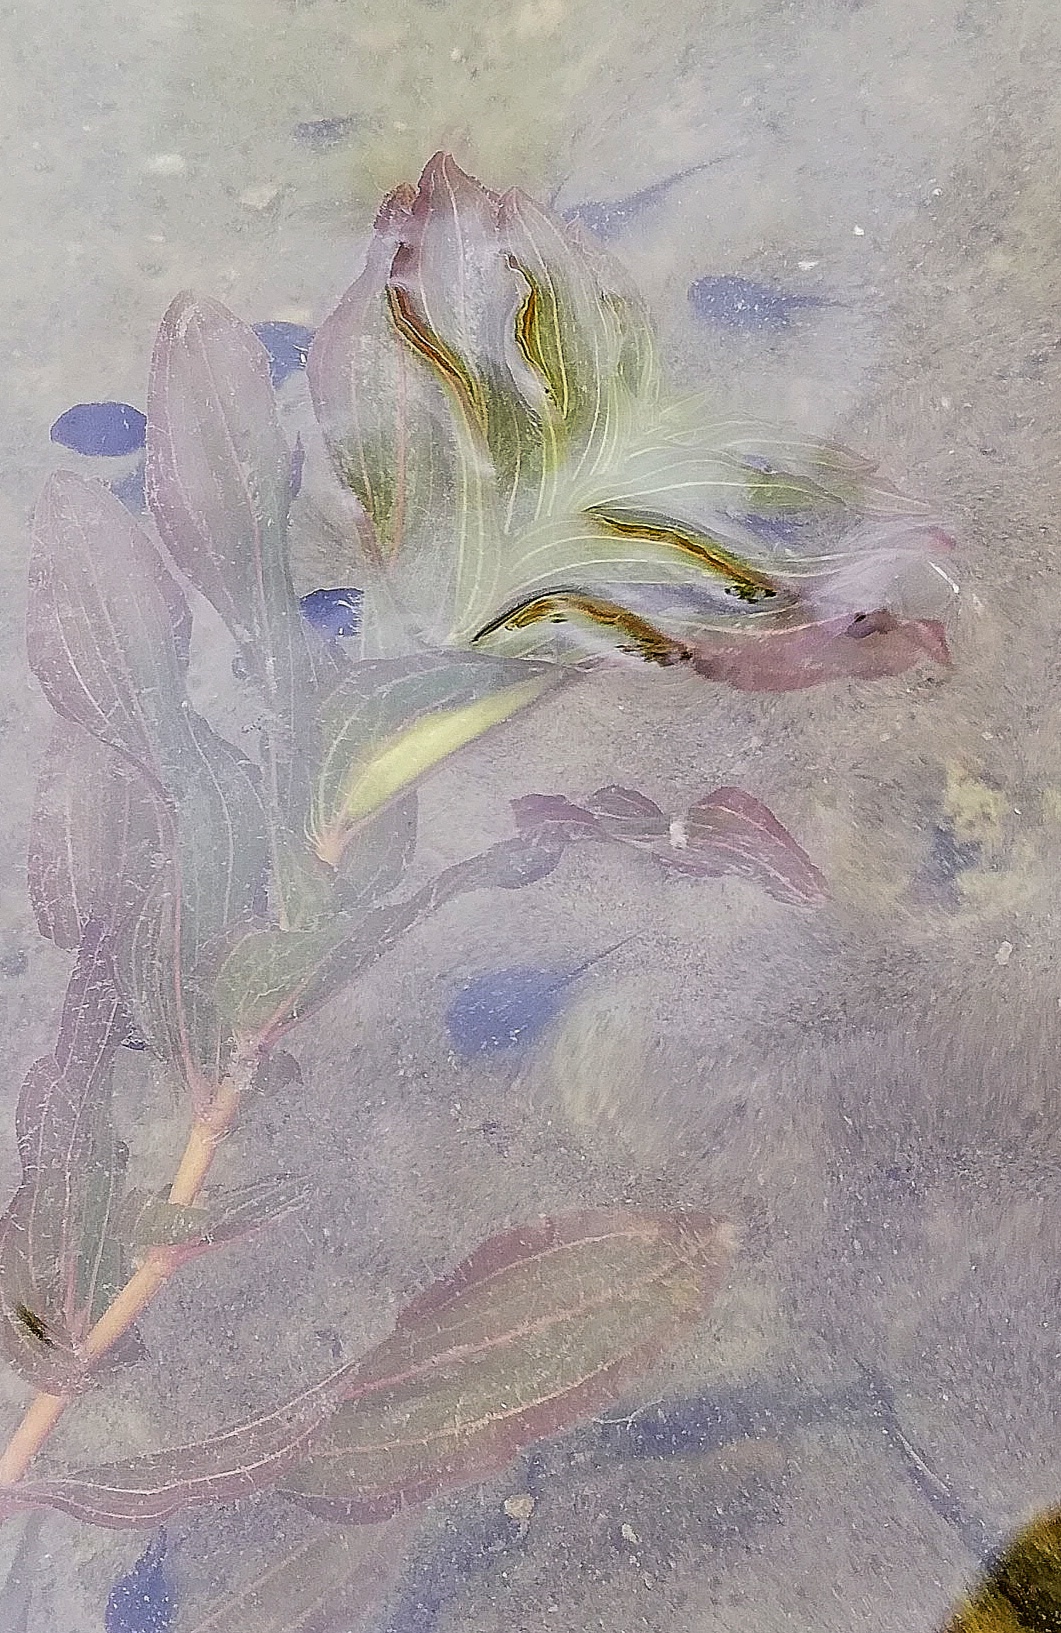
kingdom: Plantae
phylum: Tracheophyta
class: Liliopsida
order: Alismatales
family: Potamogetonaceae
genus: Potamogeton
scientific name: Potamogeton perfoliatus
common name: Perfoliate pondweed
